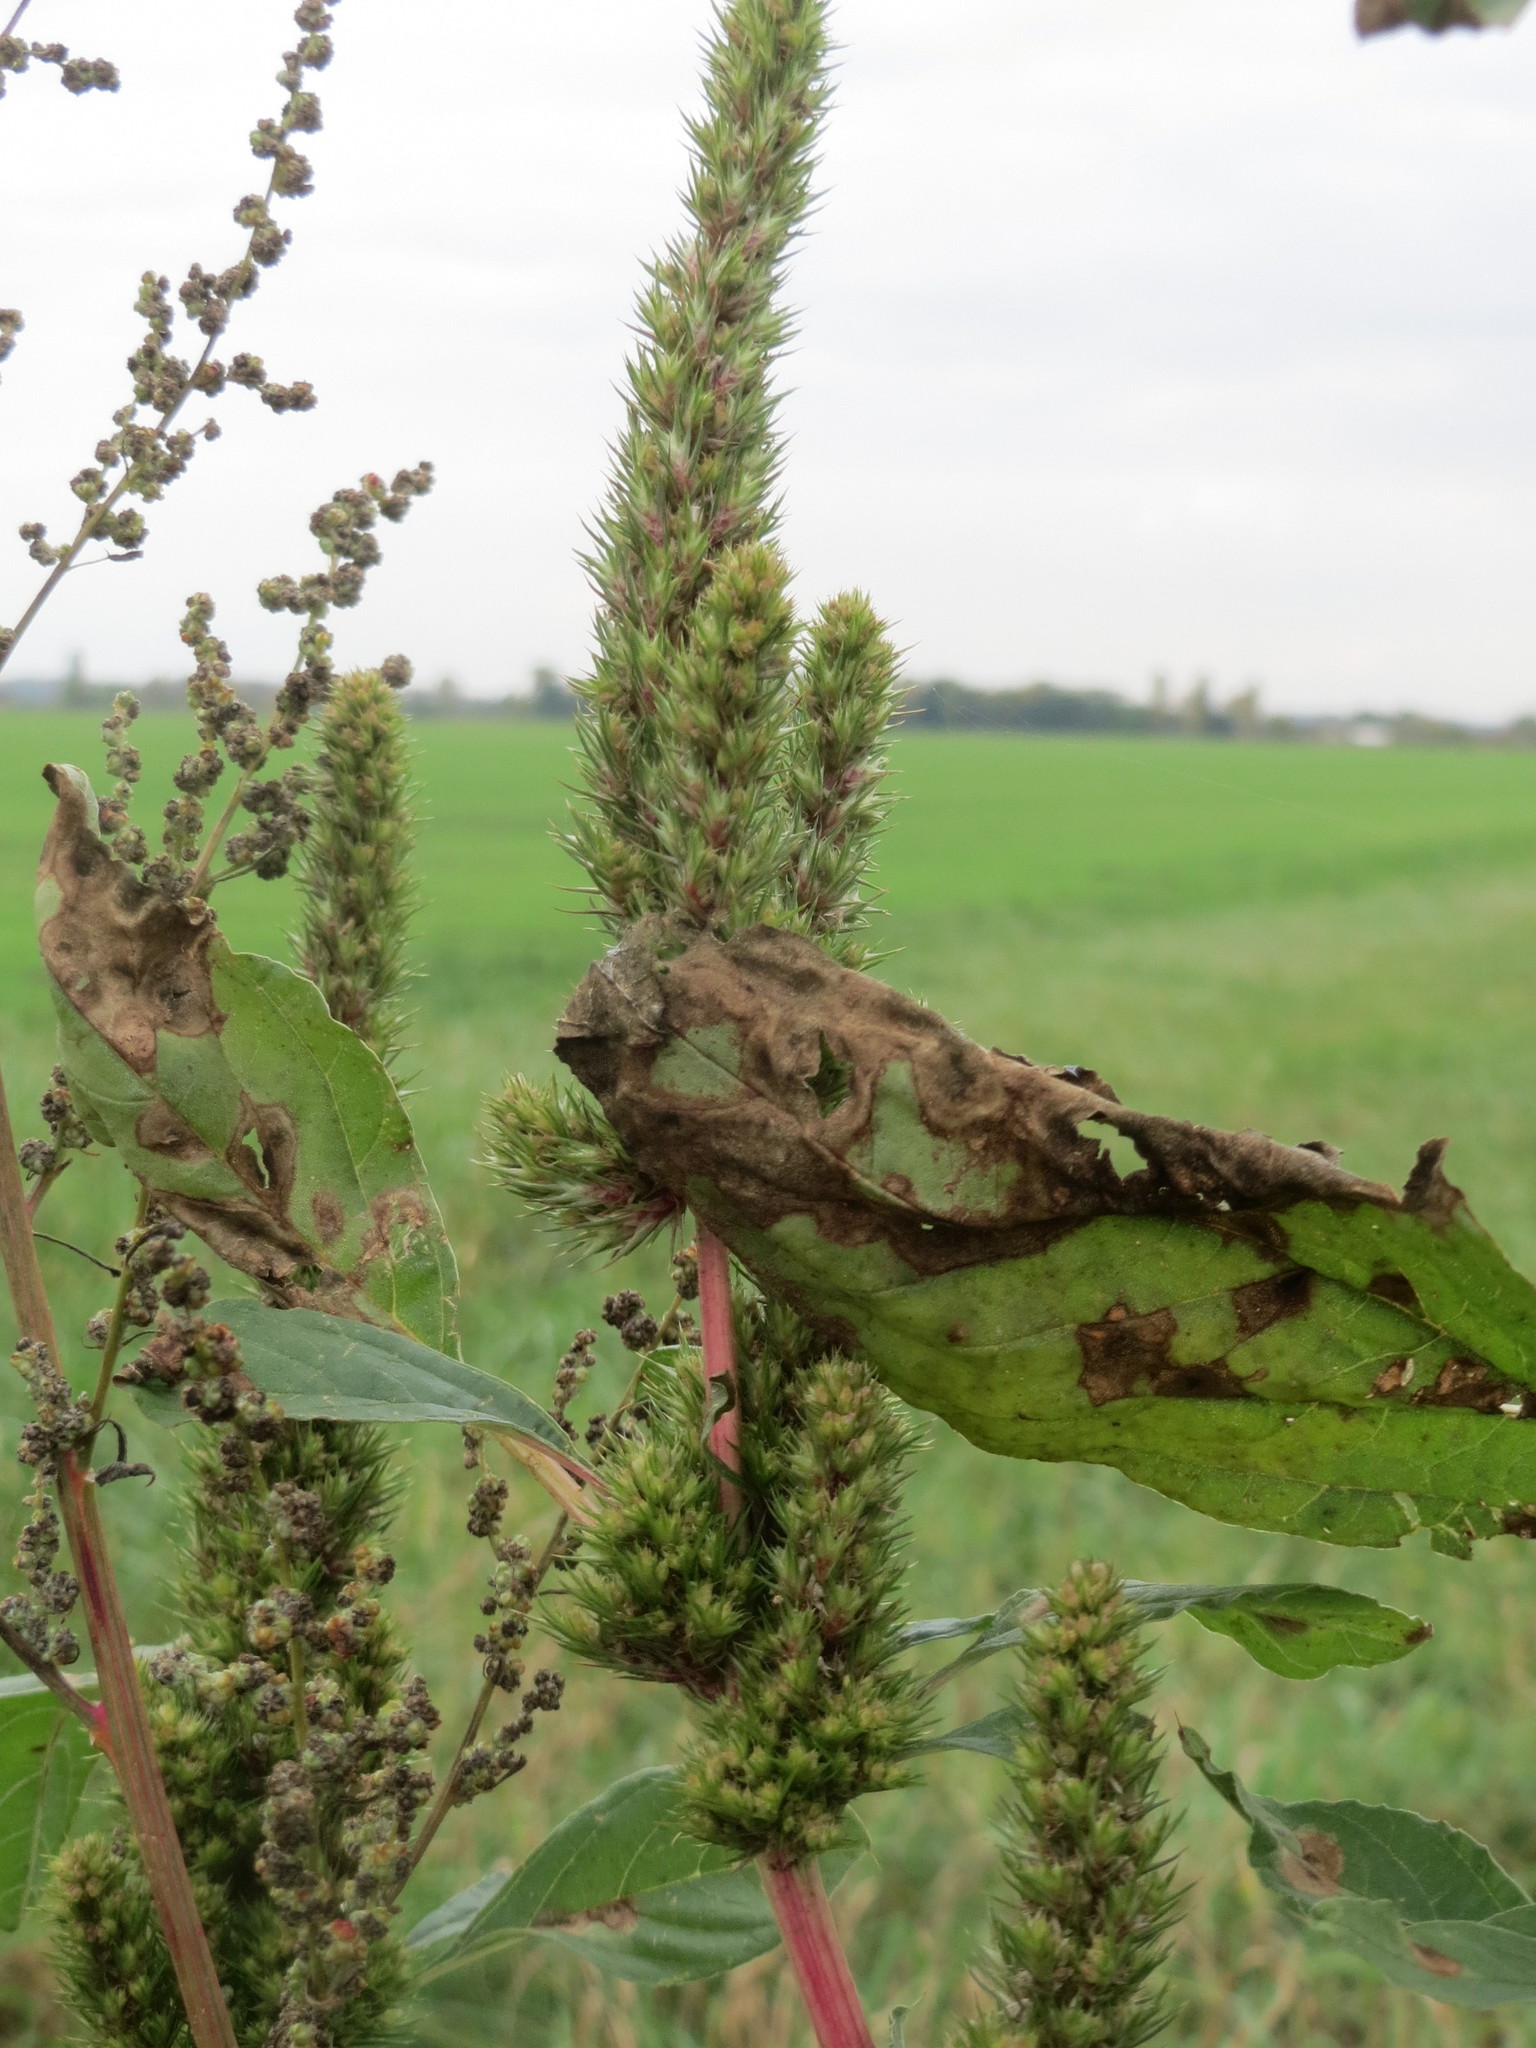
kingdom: Plantae
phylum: Tracheophyta
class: Magnoliopsida
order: Caryophyllales
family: Amaranthaceae
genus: Amaranthus
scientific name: Amaranthus powellii
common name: Powell's amaranth
